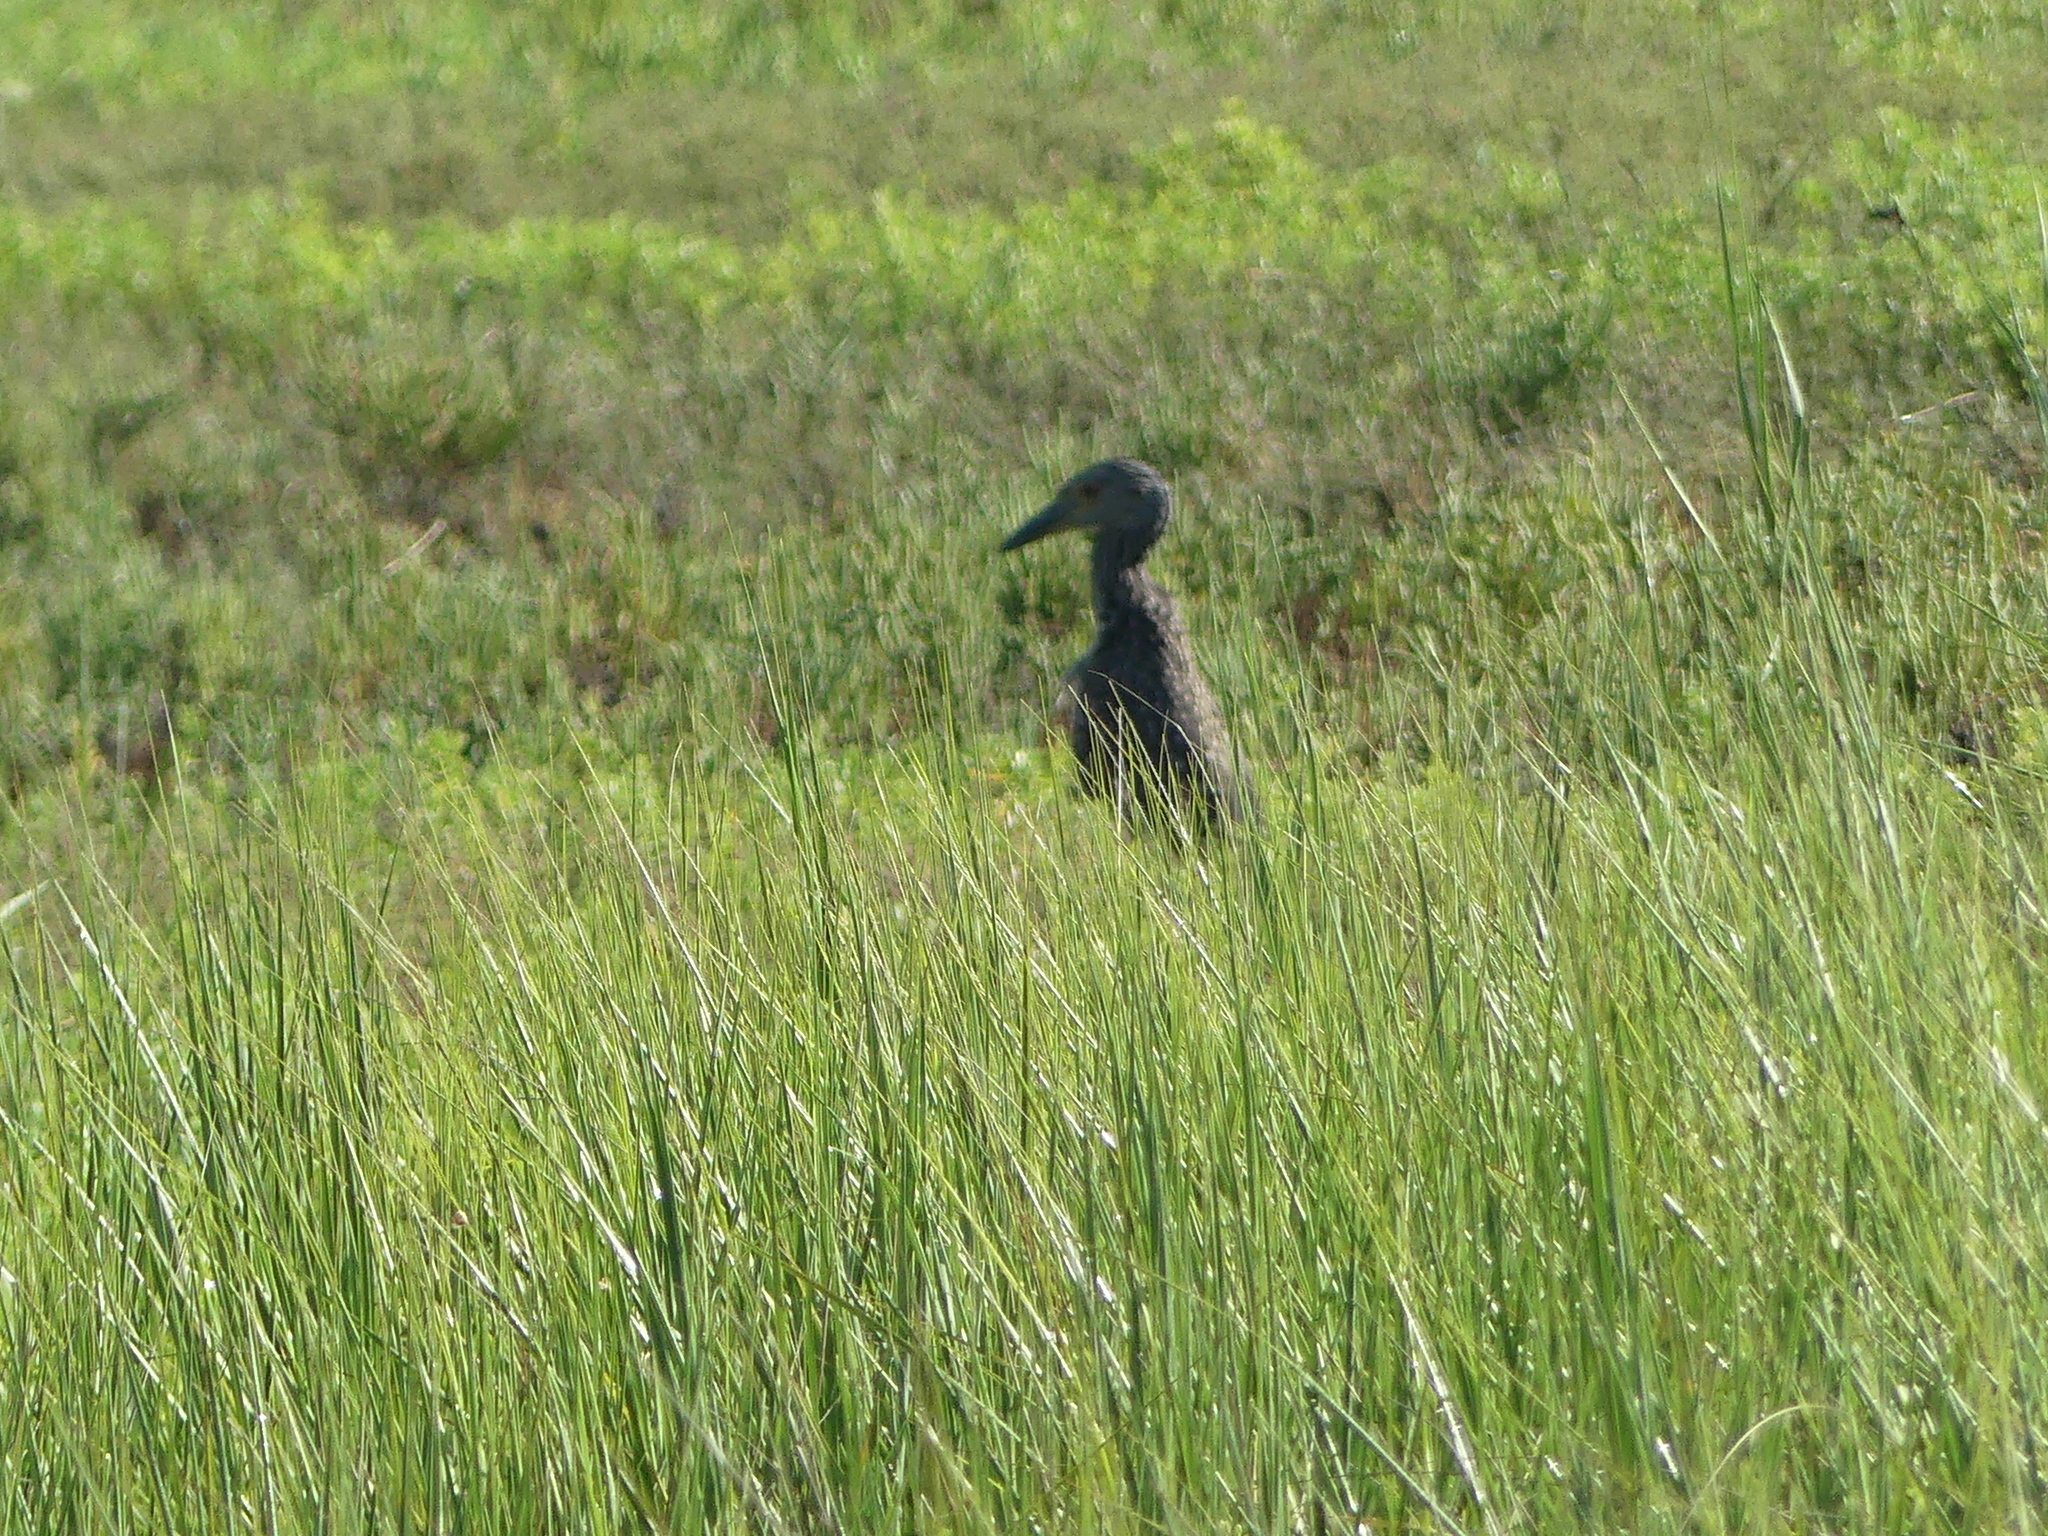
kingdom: Animalia
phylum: Chordata
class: Aves
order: Pelecaniformes
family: Ardeidae
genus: Nyctanassa
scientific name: Nyctanassa violacea
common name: Yellow-crowned night heron
